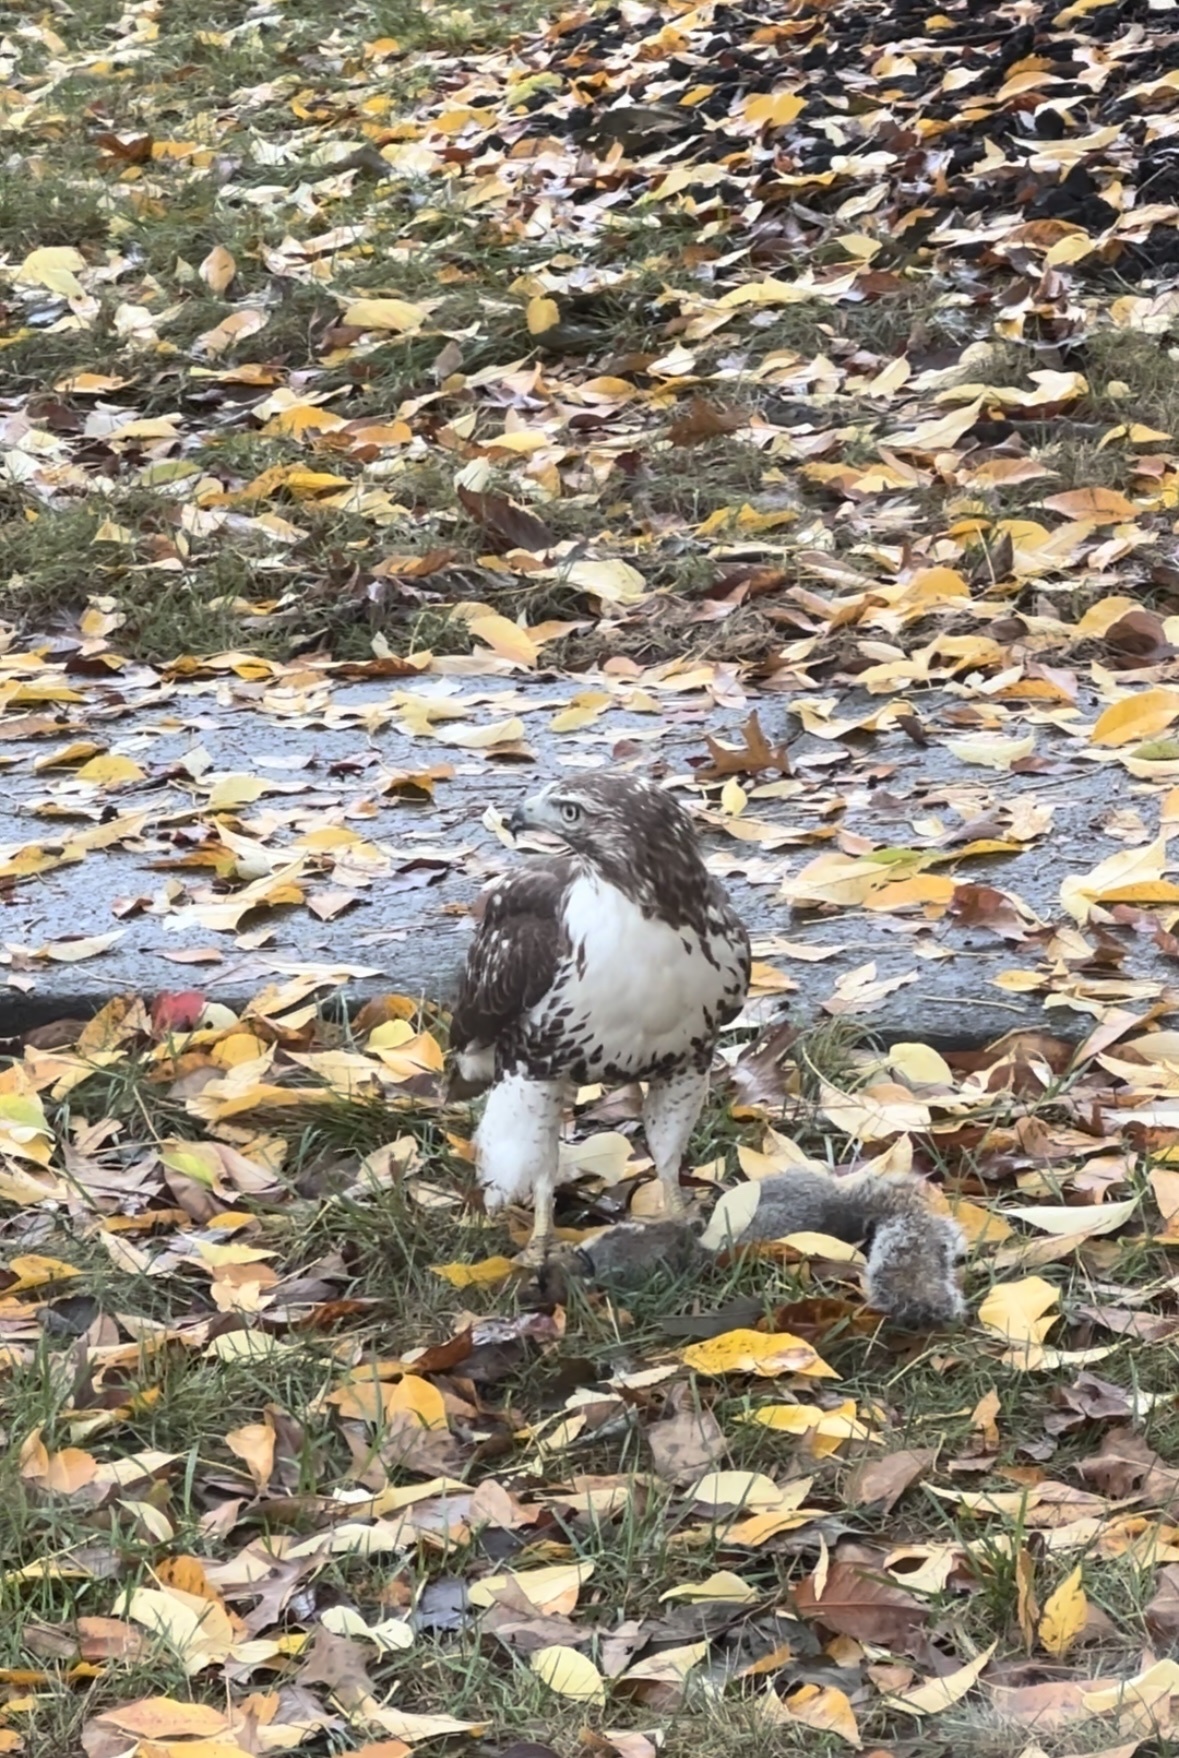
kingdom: Animalia
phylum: Chordata
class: Aves
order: Accipitriformes
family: Accipitridae
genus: Buteo
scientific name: Buteo jamaicensis
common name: Red-tailed hawk
